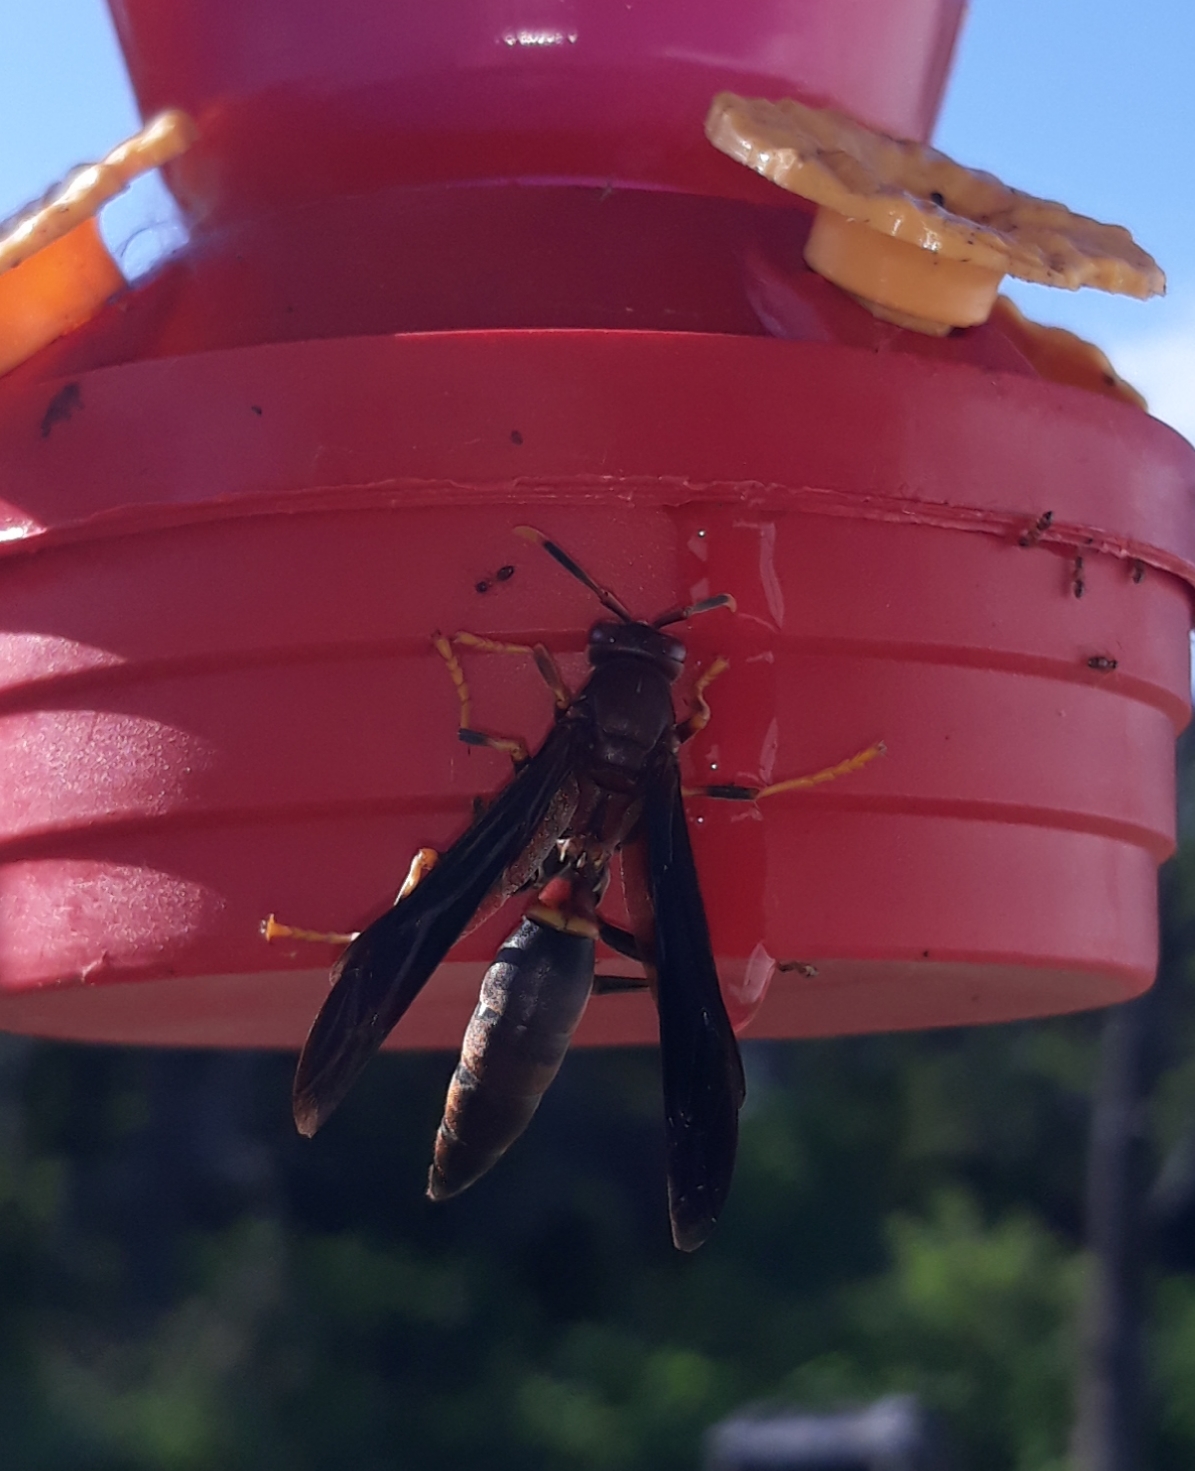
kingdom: Animalia
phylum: Arthropoda
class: Insecta
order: Hymenoptera
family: Eumenidae
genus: Polistes
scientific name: Polistes annularis
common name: Ringed paper wasp
